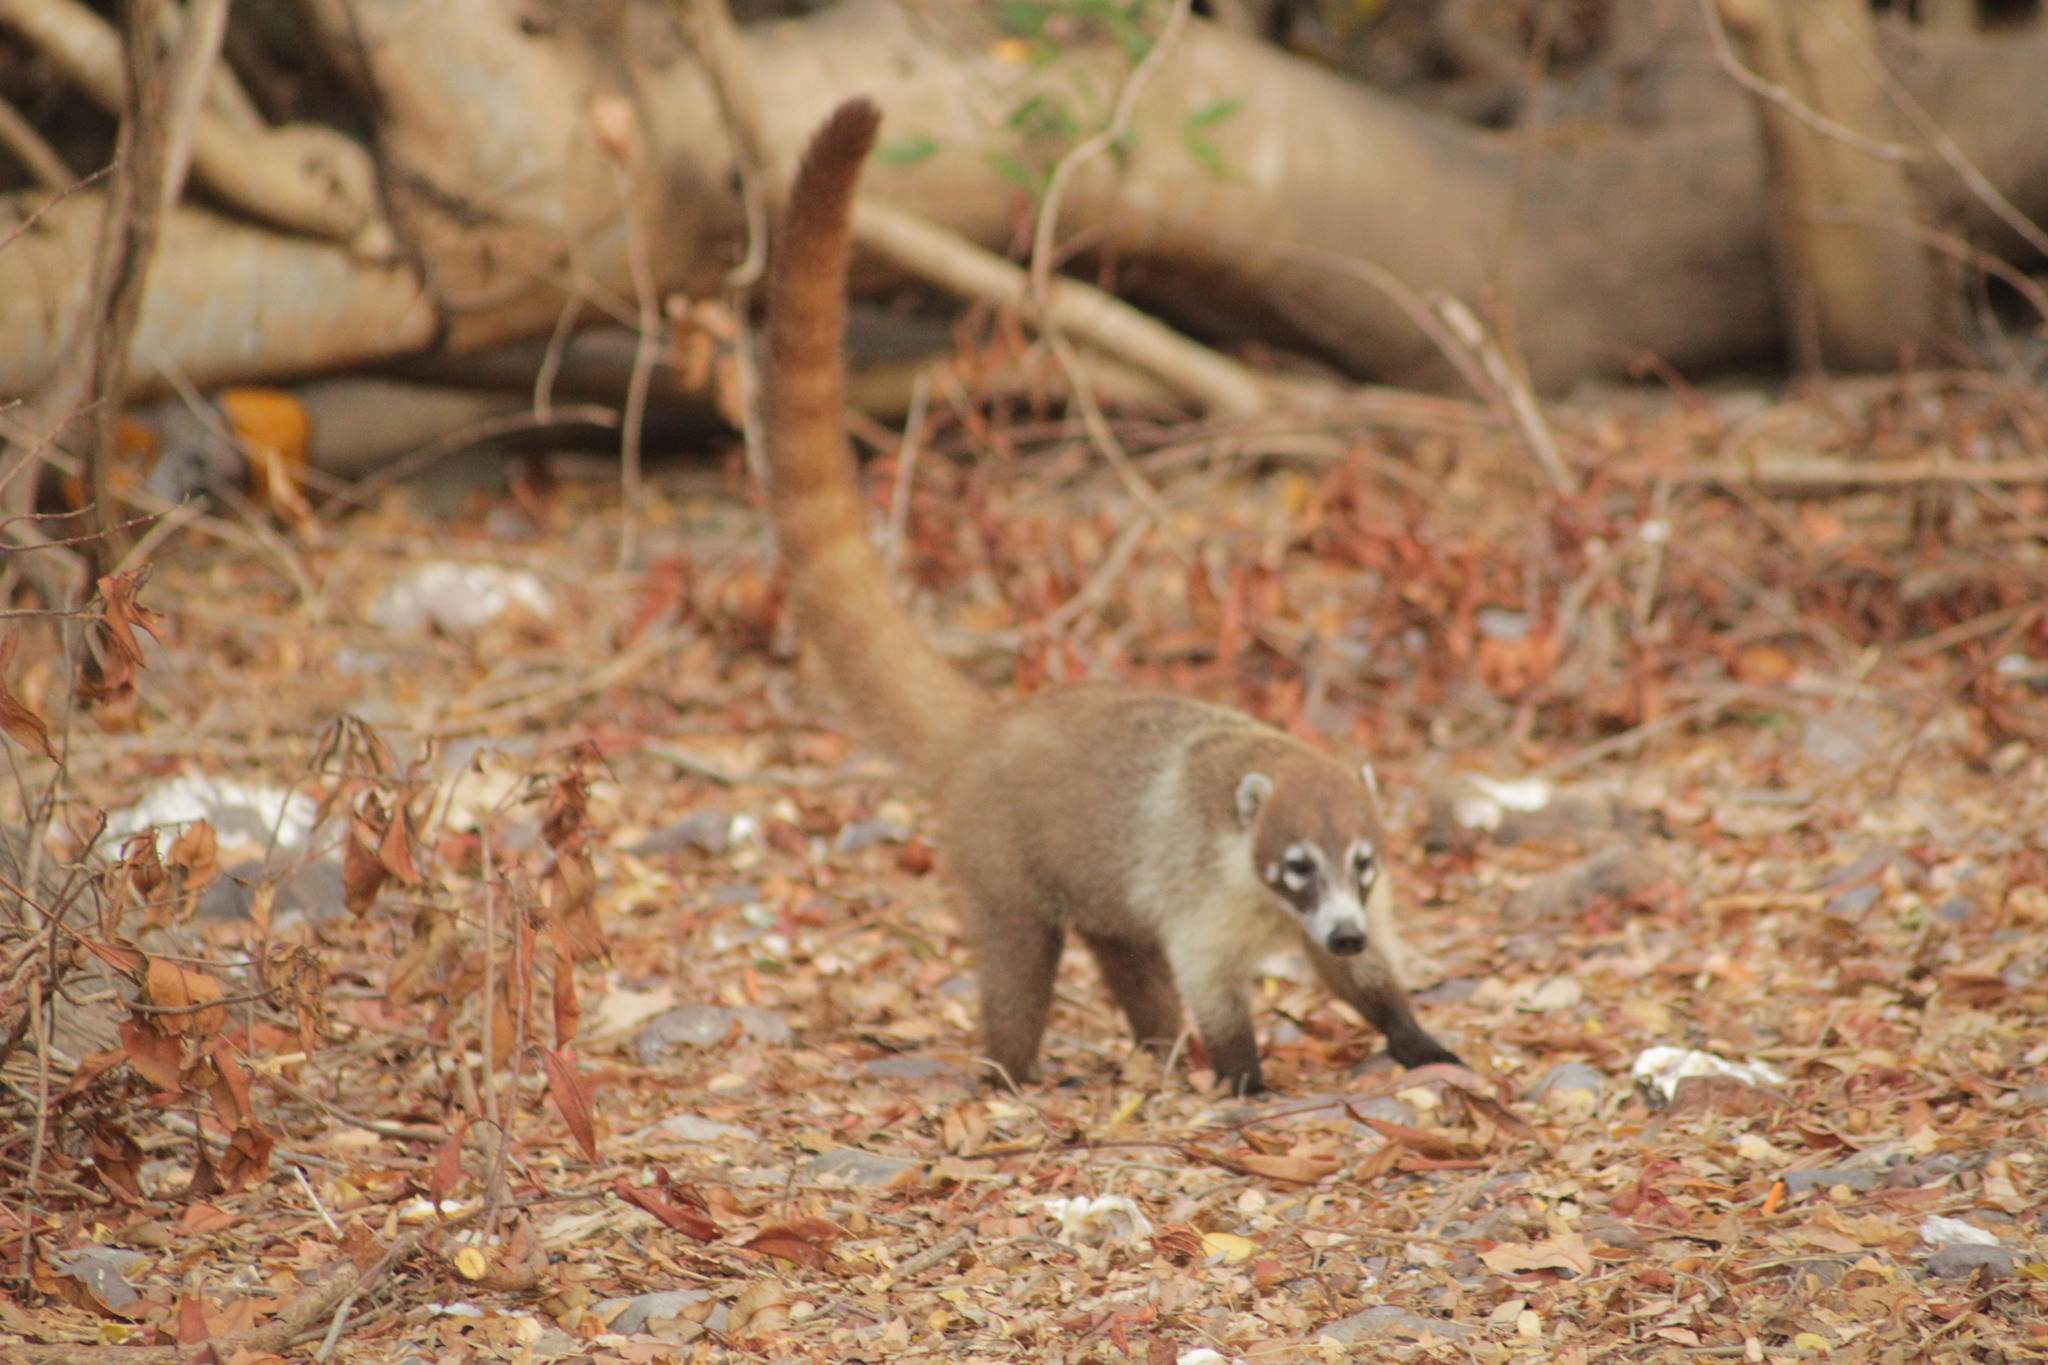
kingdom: Animalia
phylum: Chordata
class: Mammalia
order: Carnivora
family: Procyonidae
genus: Nasua
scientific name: Nasua narica
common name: White-nosed coati
